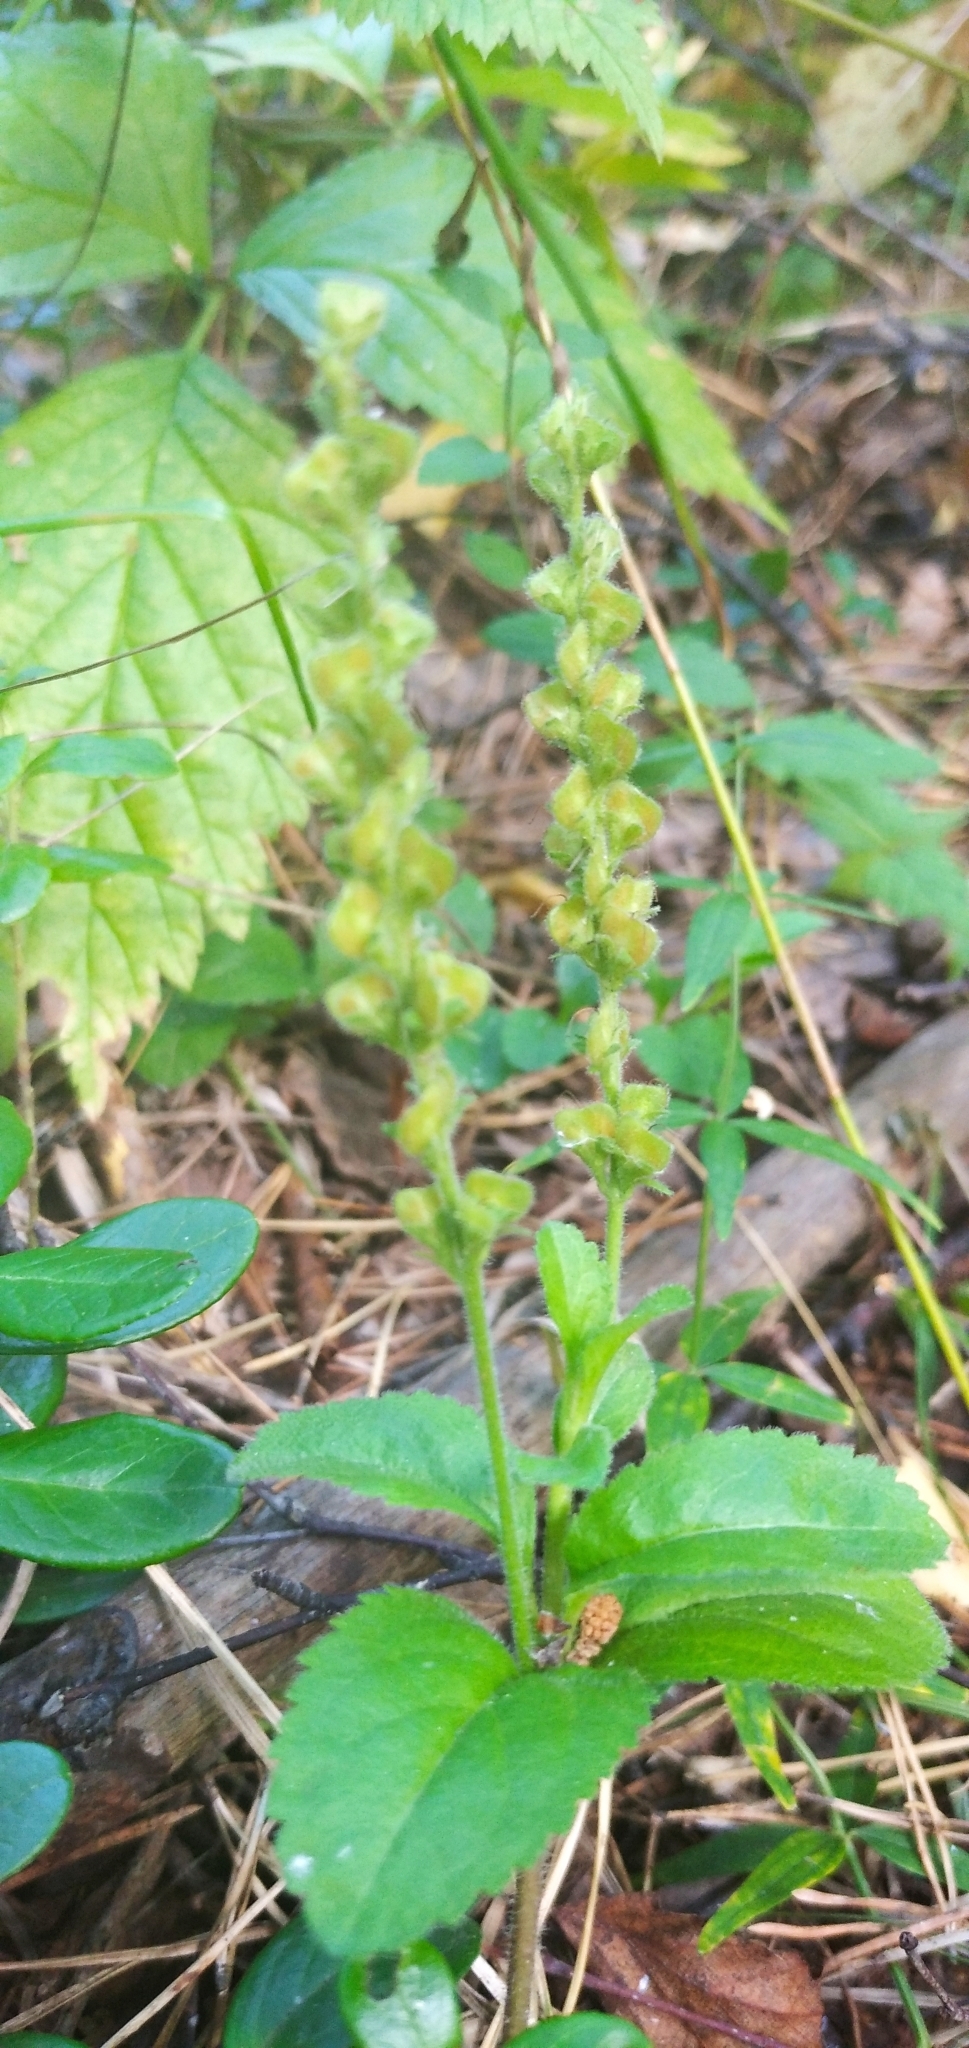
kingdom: Plantae
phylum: Tracheophyta
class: Magnoliopsida
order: Lamiales
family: Plantaginaceae
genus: Veronica
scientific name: Veronica officinalis
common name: Common speedwell
